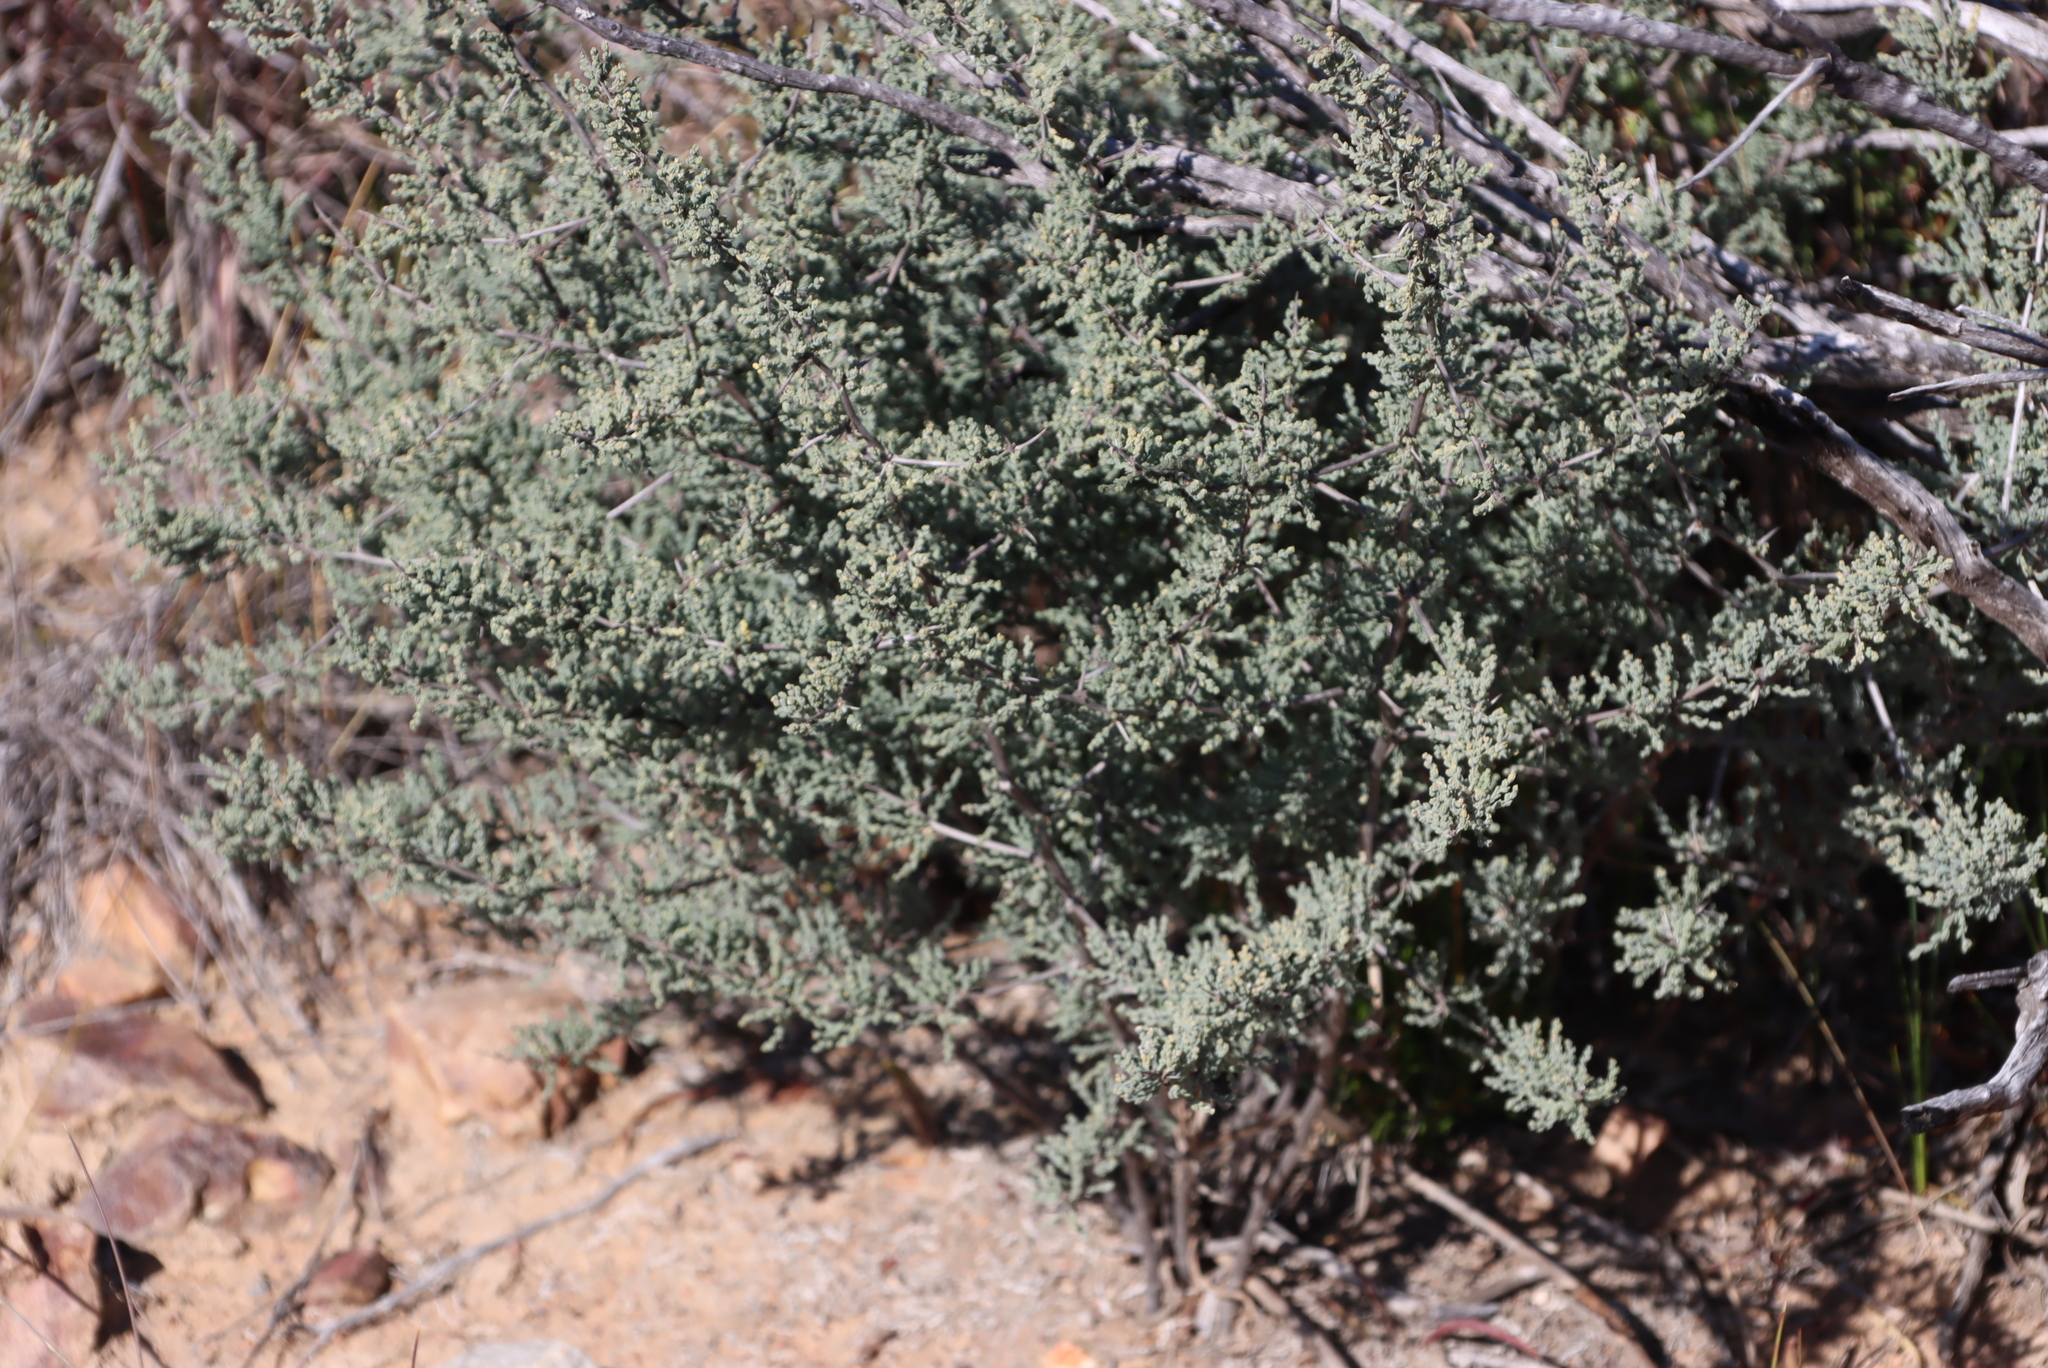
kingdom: Plantae
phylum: Tracheophyta
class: Liliopsida
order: Asparagales
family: Asparagaceae
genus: Asparagus
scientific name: Asparagus capensis
